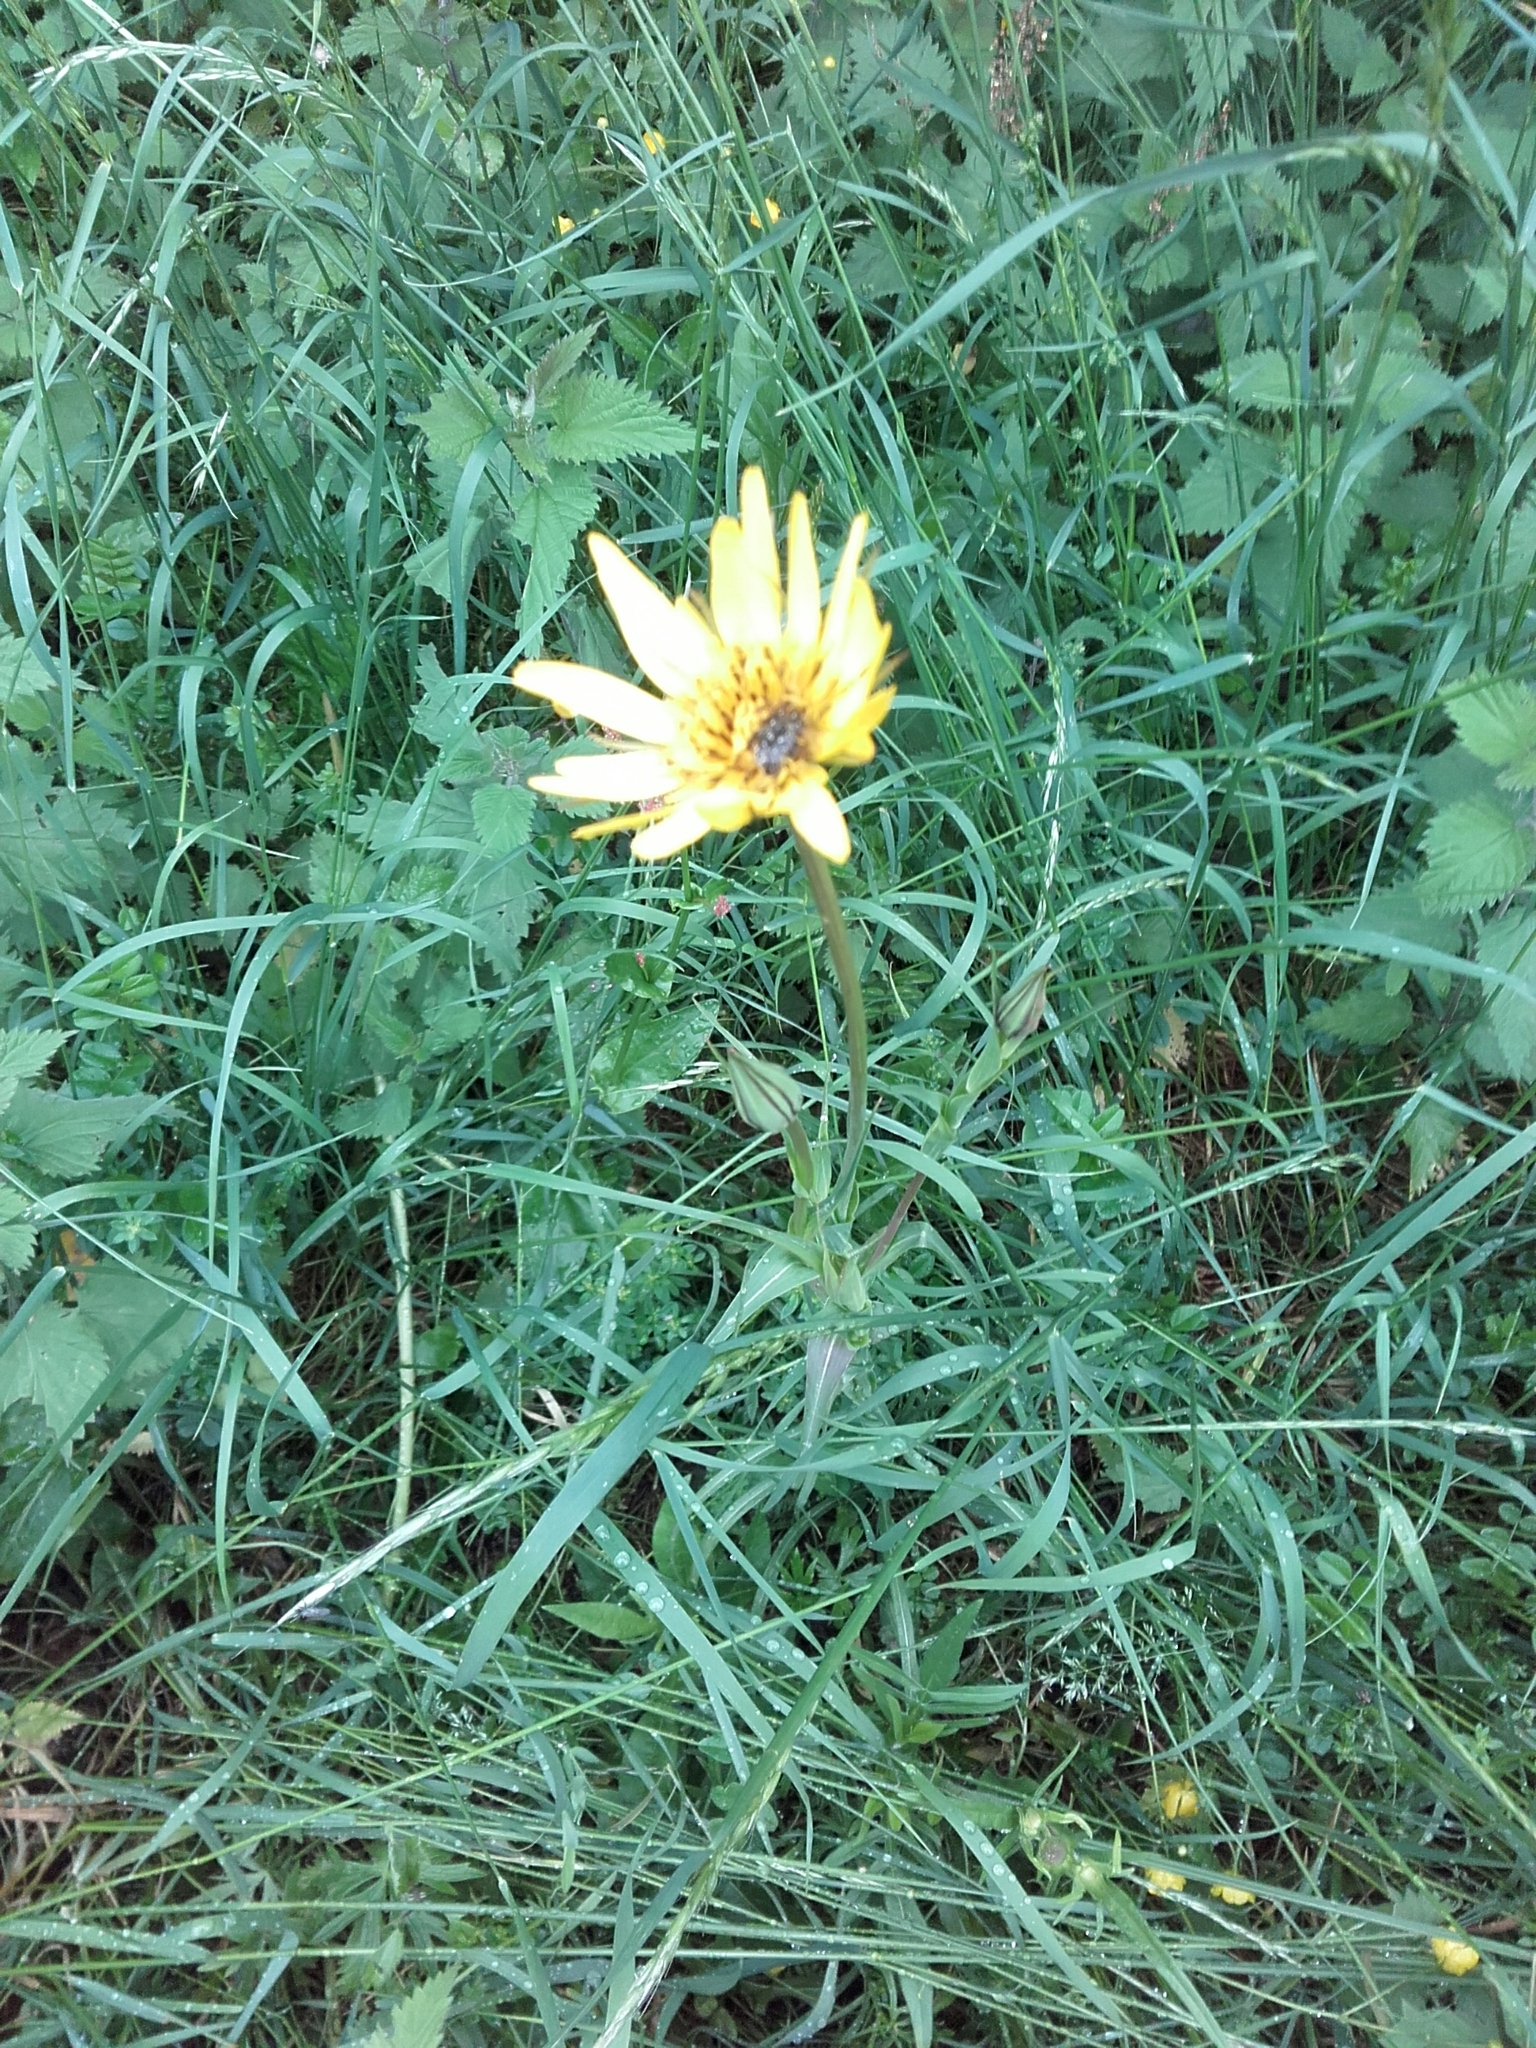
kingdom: Plantae
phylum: Tracheophyta
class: Magnoliopsida
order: Asterales
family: Asteraceae
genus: Tragopogon
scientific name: Tragopogon pratensis
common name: Goat's-beard
